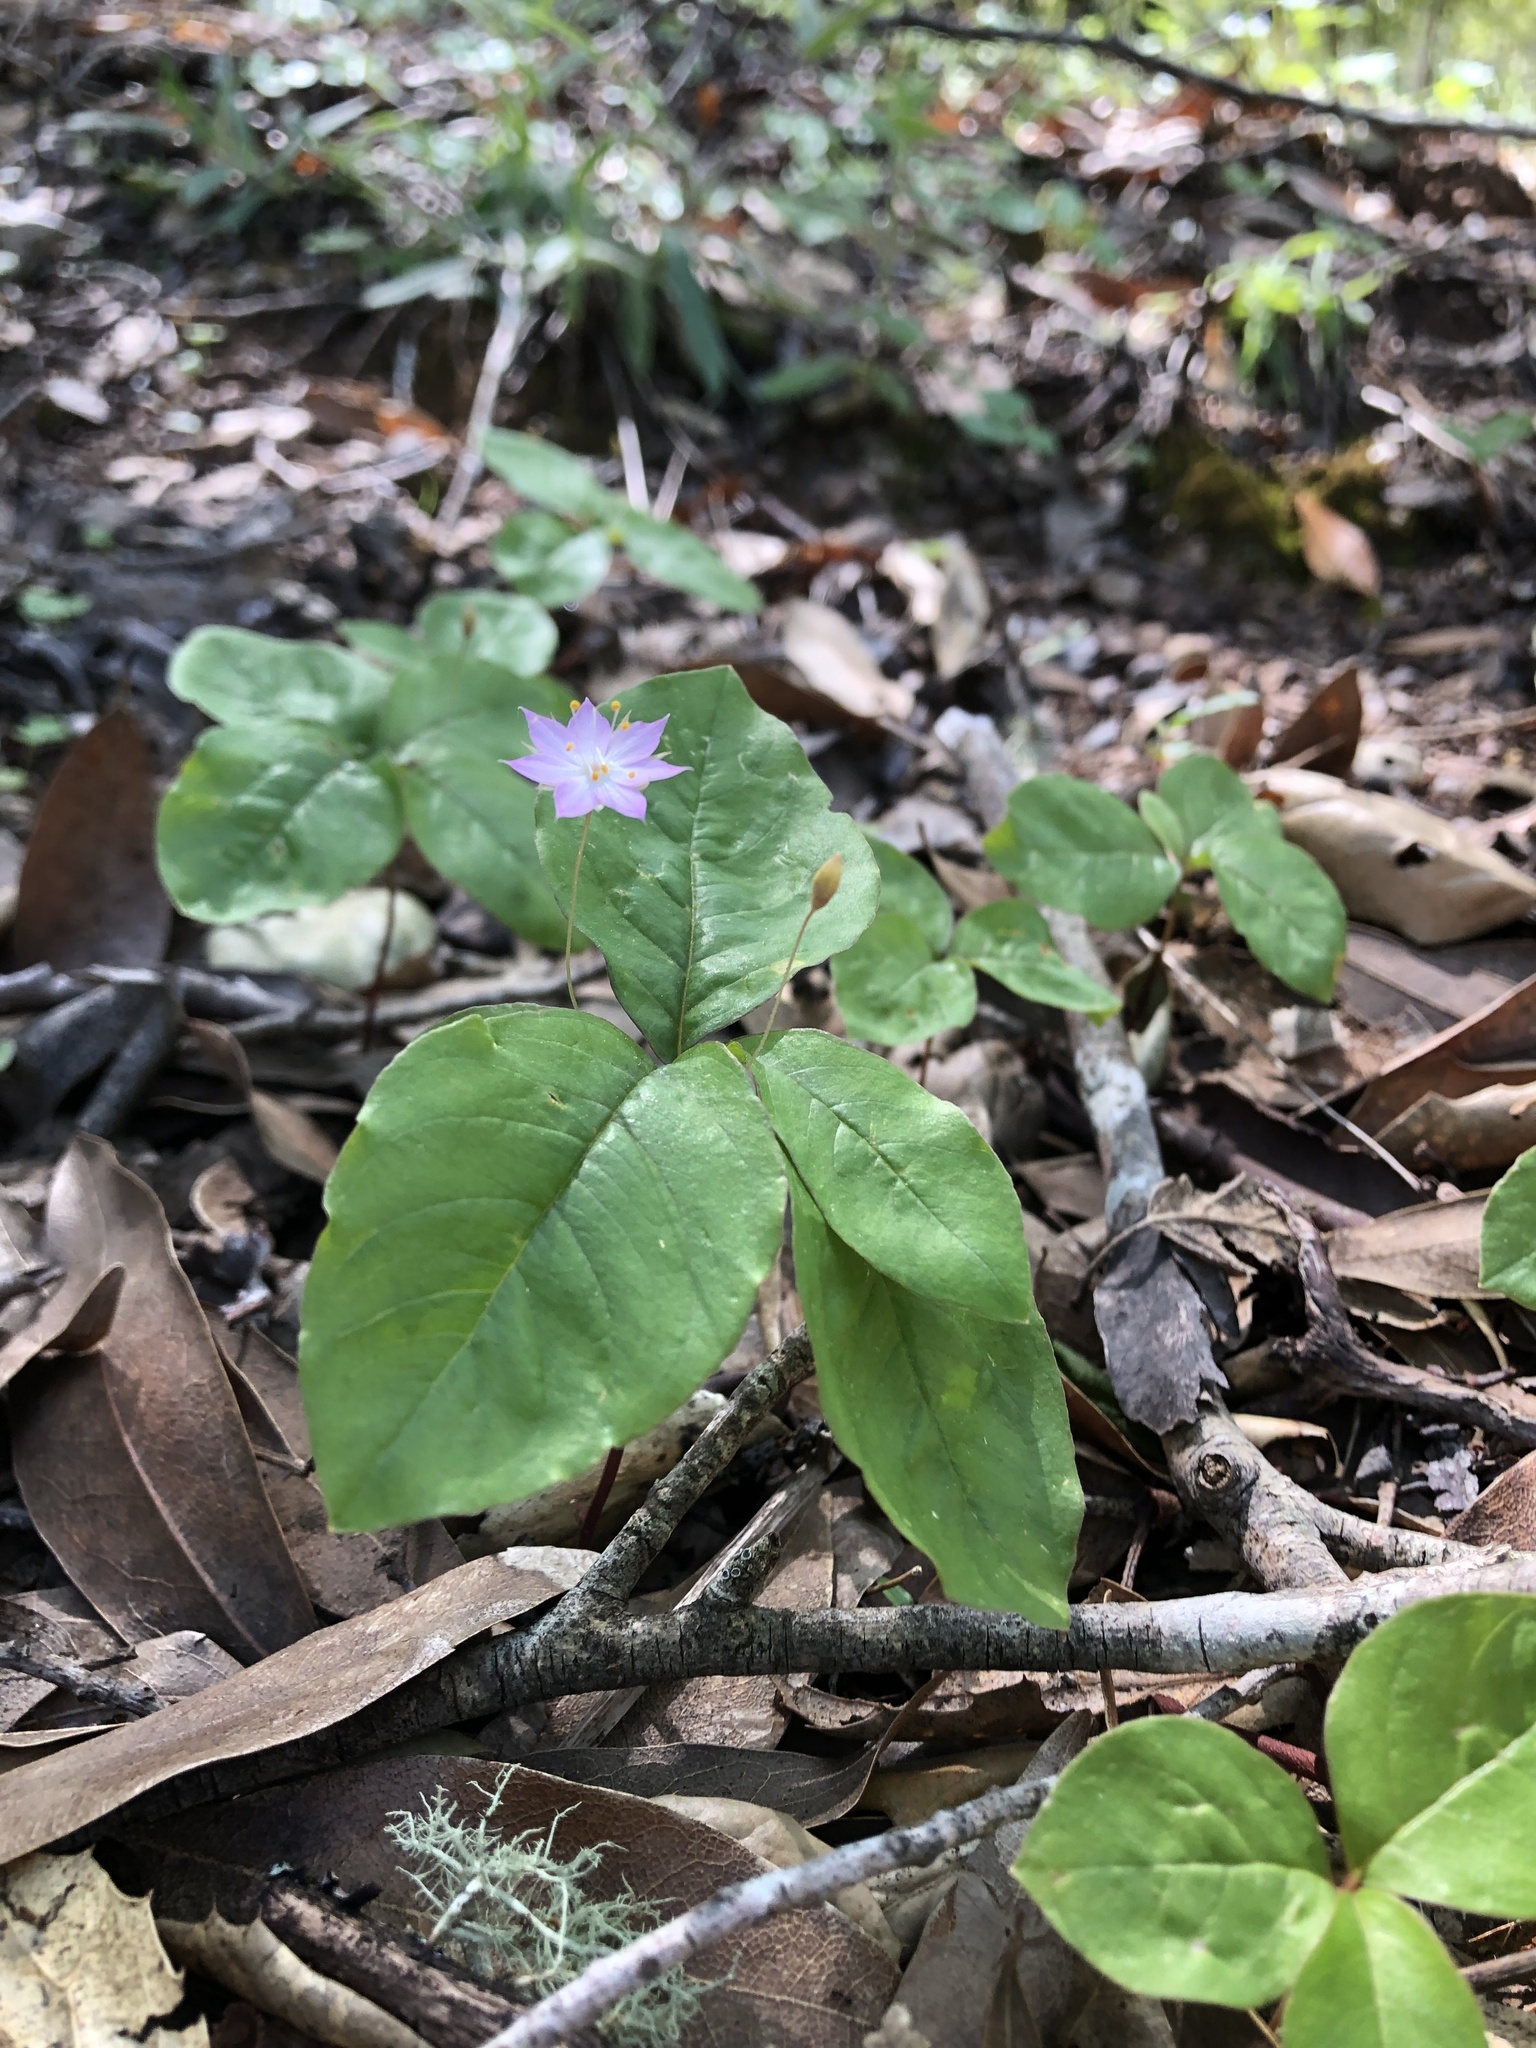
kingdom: Plantae
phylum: Tracheophyta
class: Magnoliopsida
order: Ericales
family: Primulaceae
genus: Lysimachia
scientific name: Lysimachia latifolia
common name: Pacific starflower
